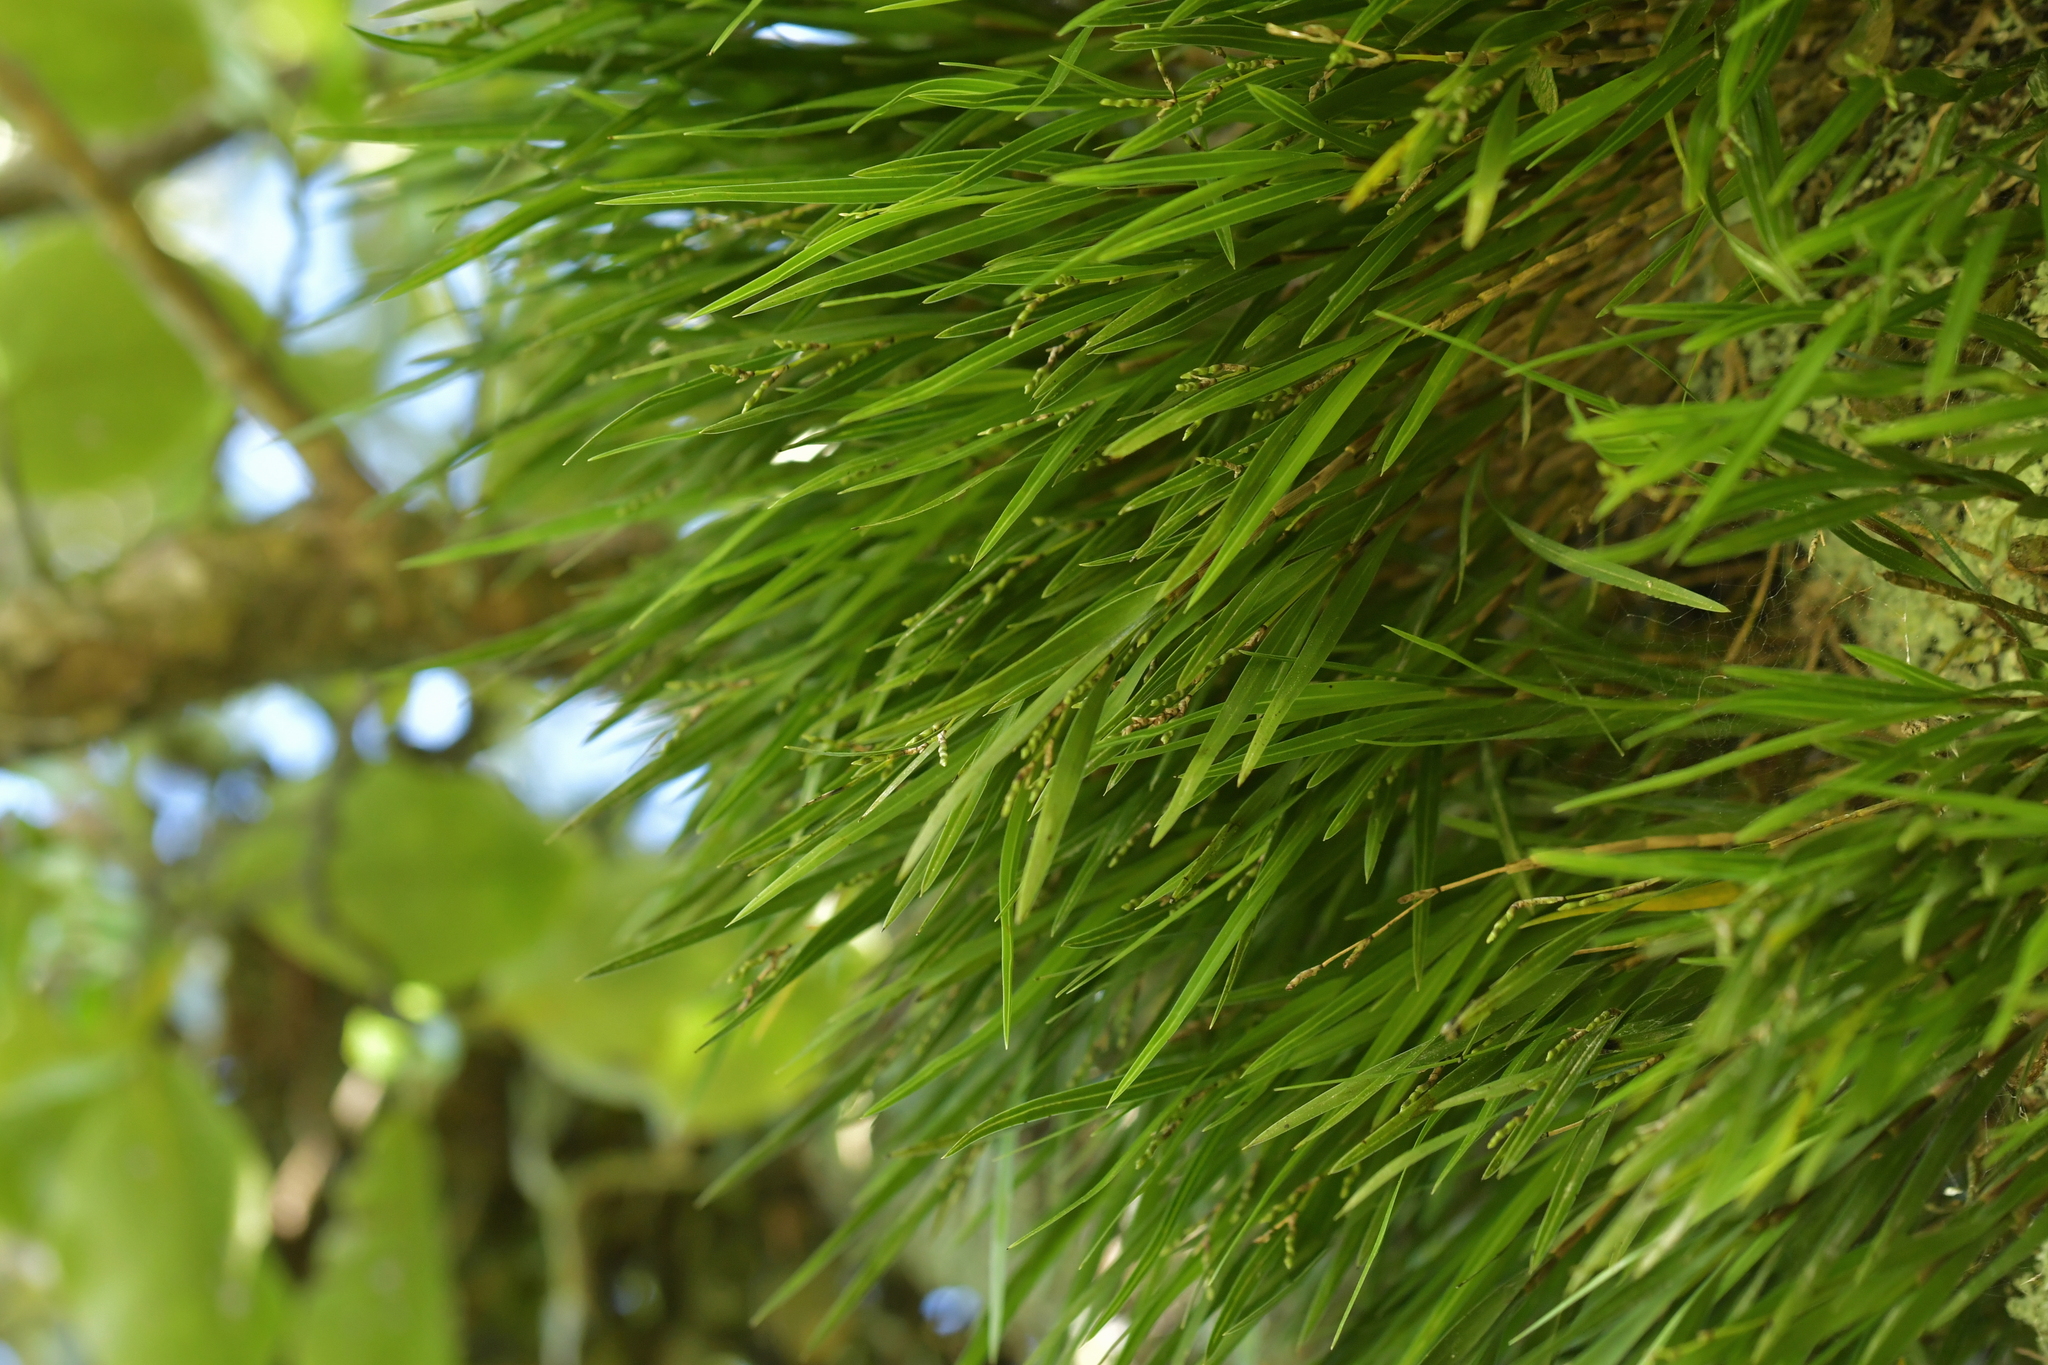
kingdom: Plantae
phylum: Tracheophyta
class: Liliopsida
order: Asparagales
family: Orchidaceae
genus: Earina
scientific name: Earina mucronata
